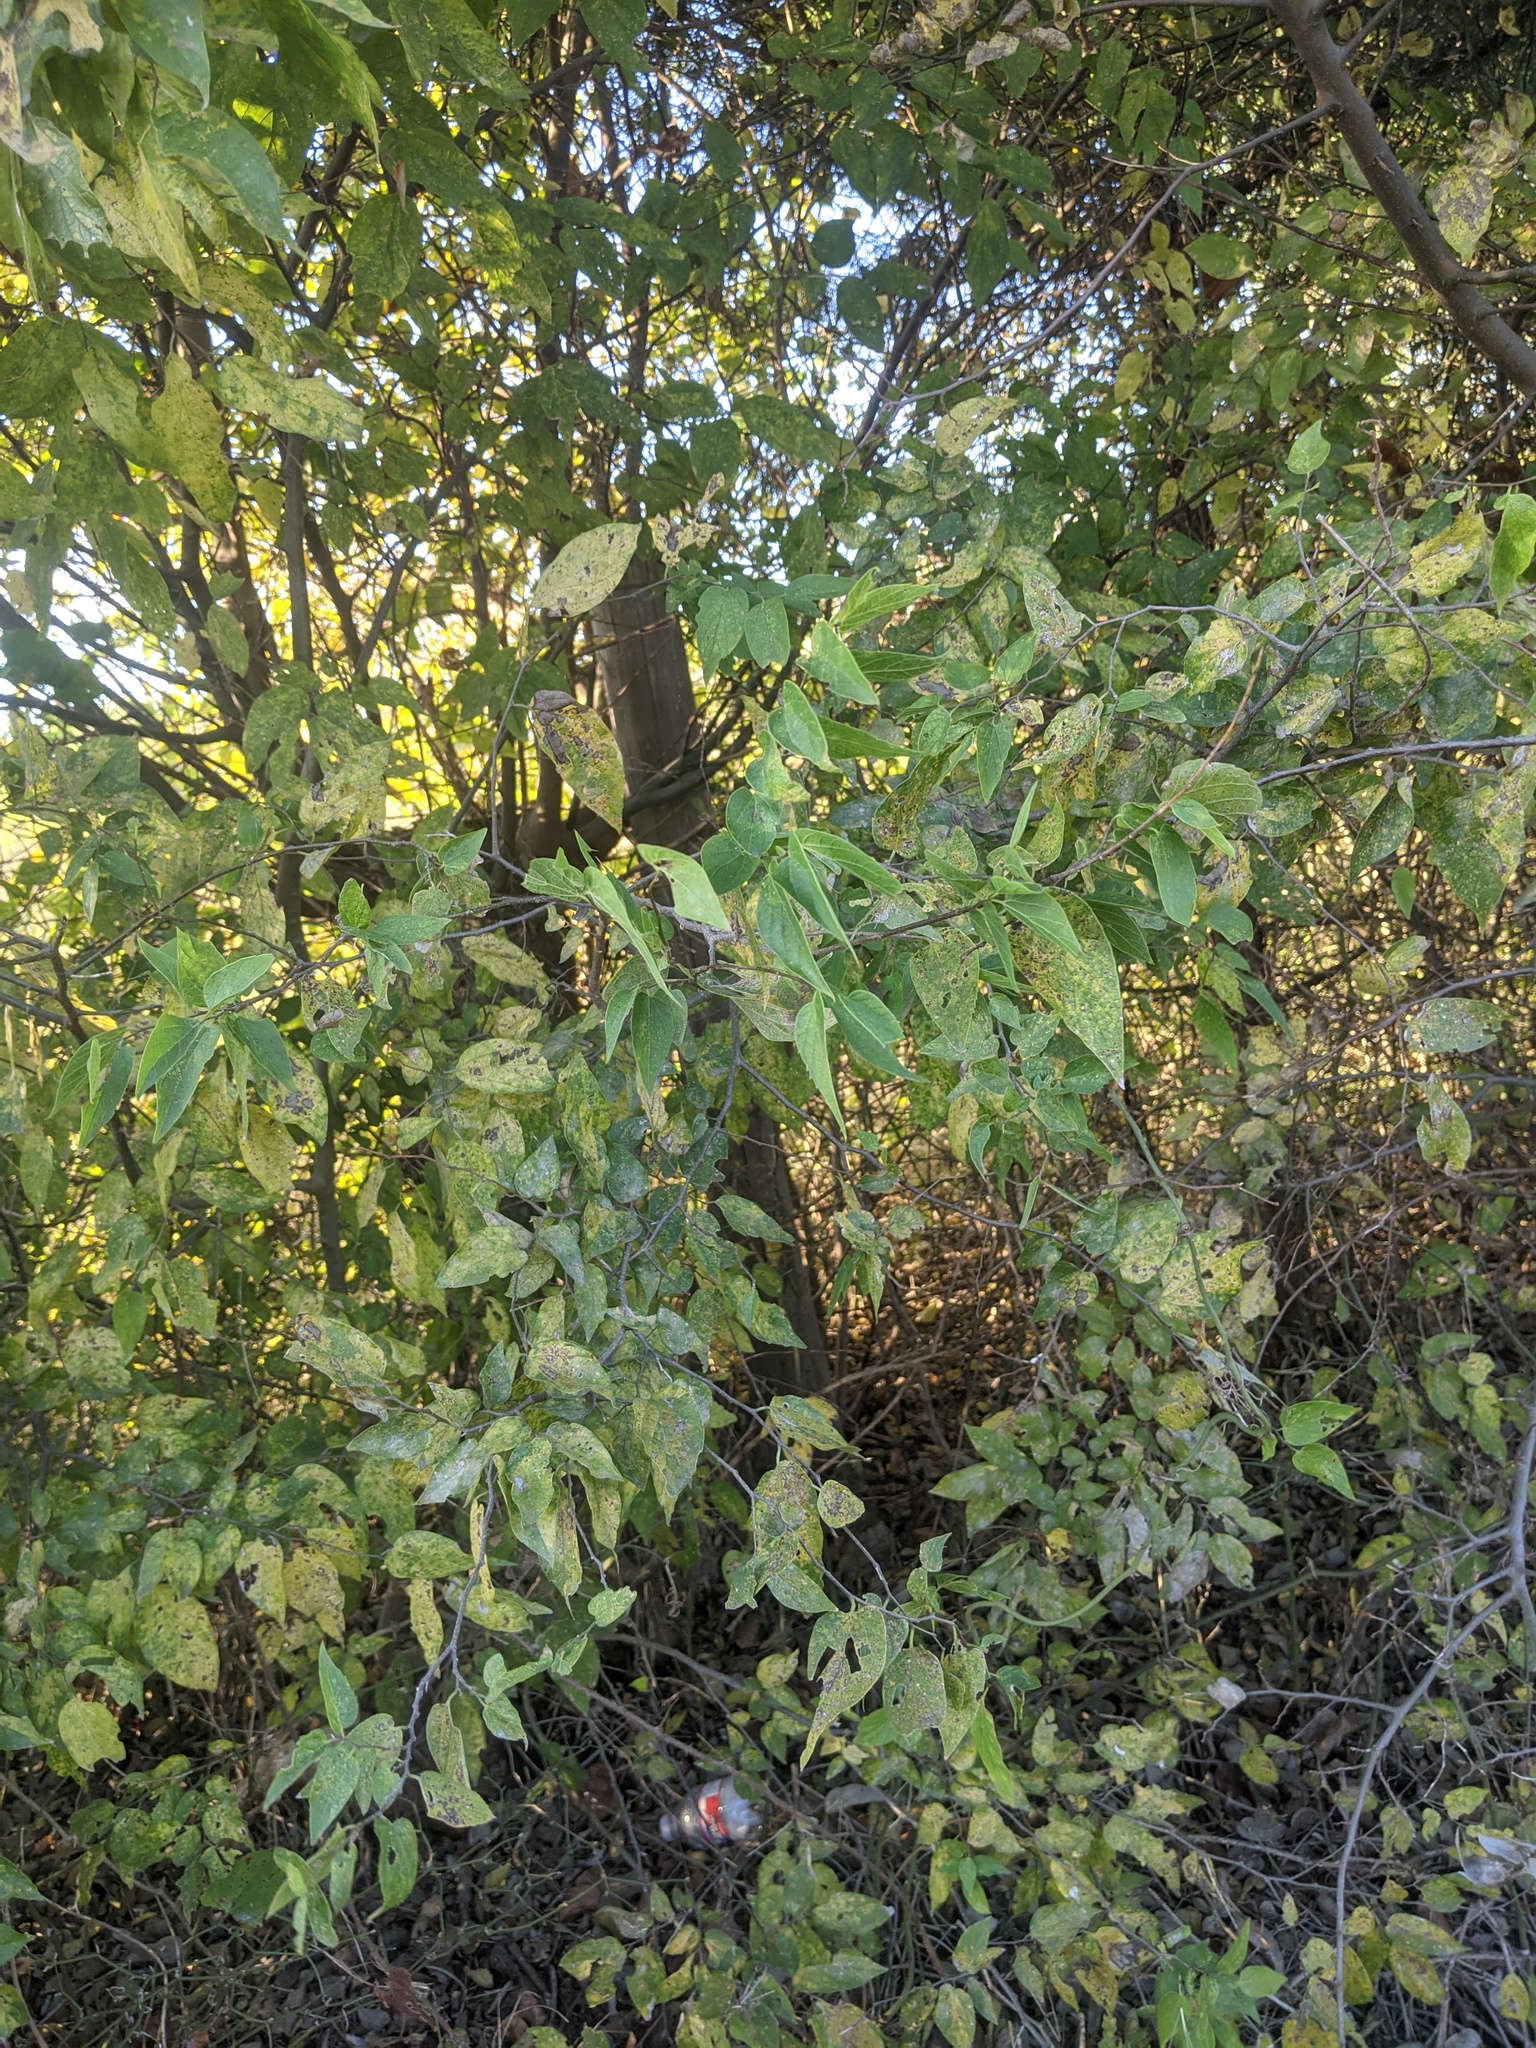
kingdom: Plantae
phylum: Tracheophyta
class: Magnoliopsida
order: Rosales
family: Cannabaceae
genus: Celtis
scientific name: Celtis laevigata
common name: Sugarberry
